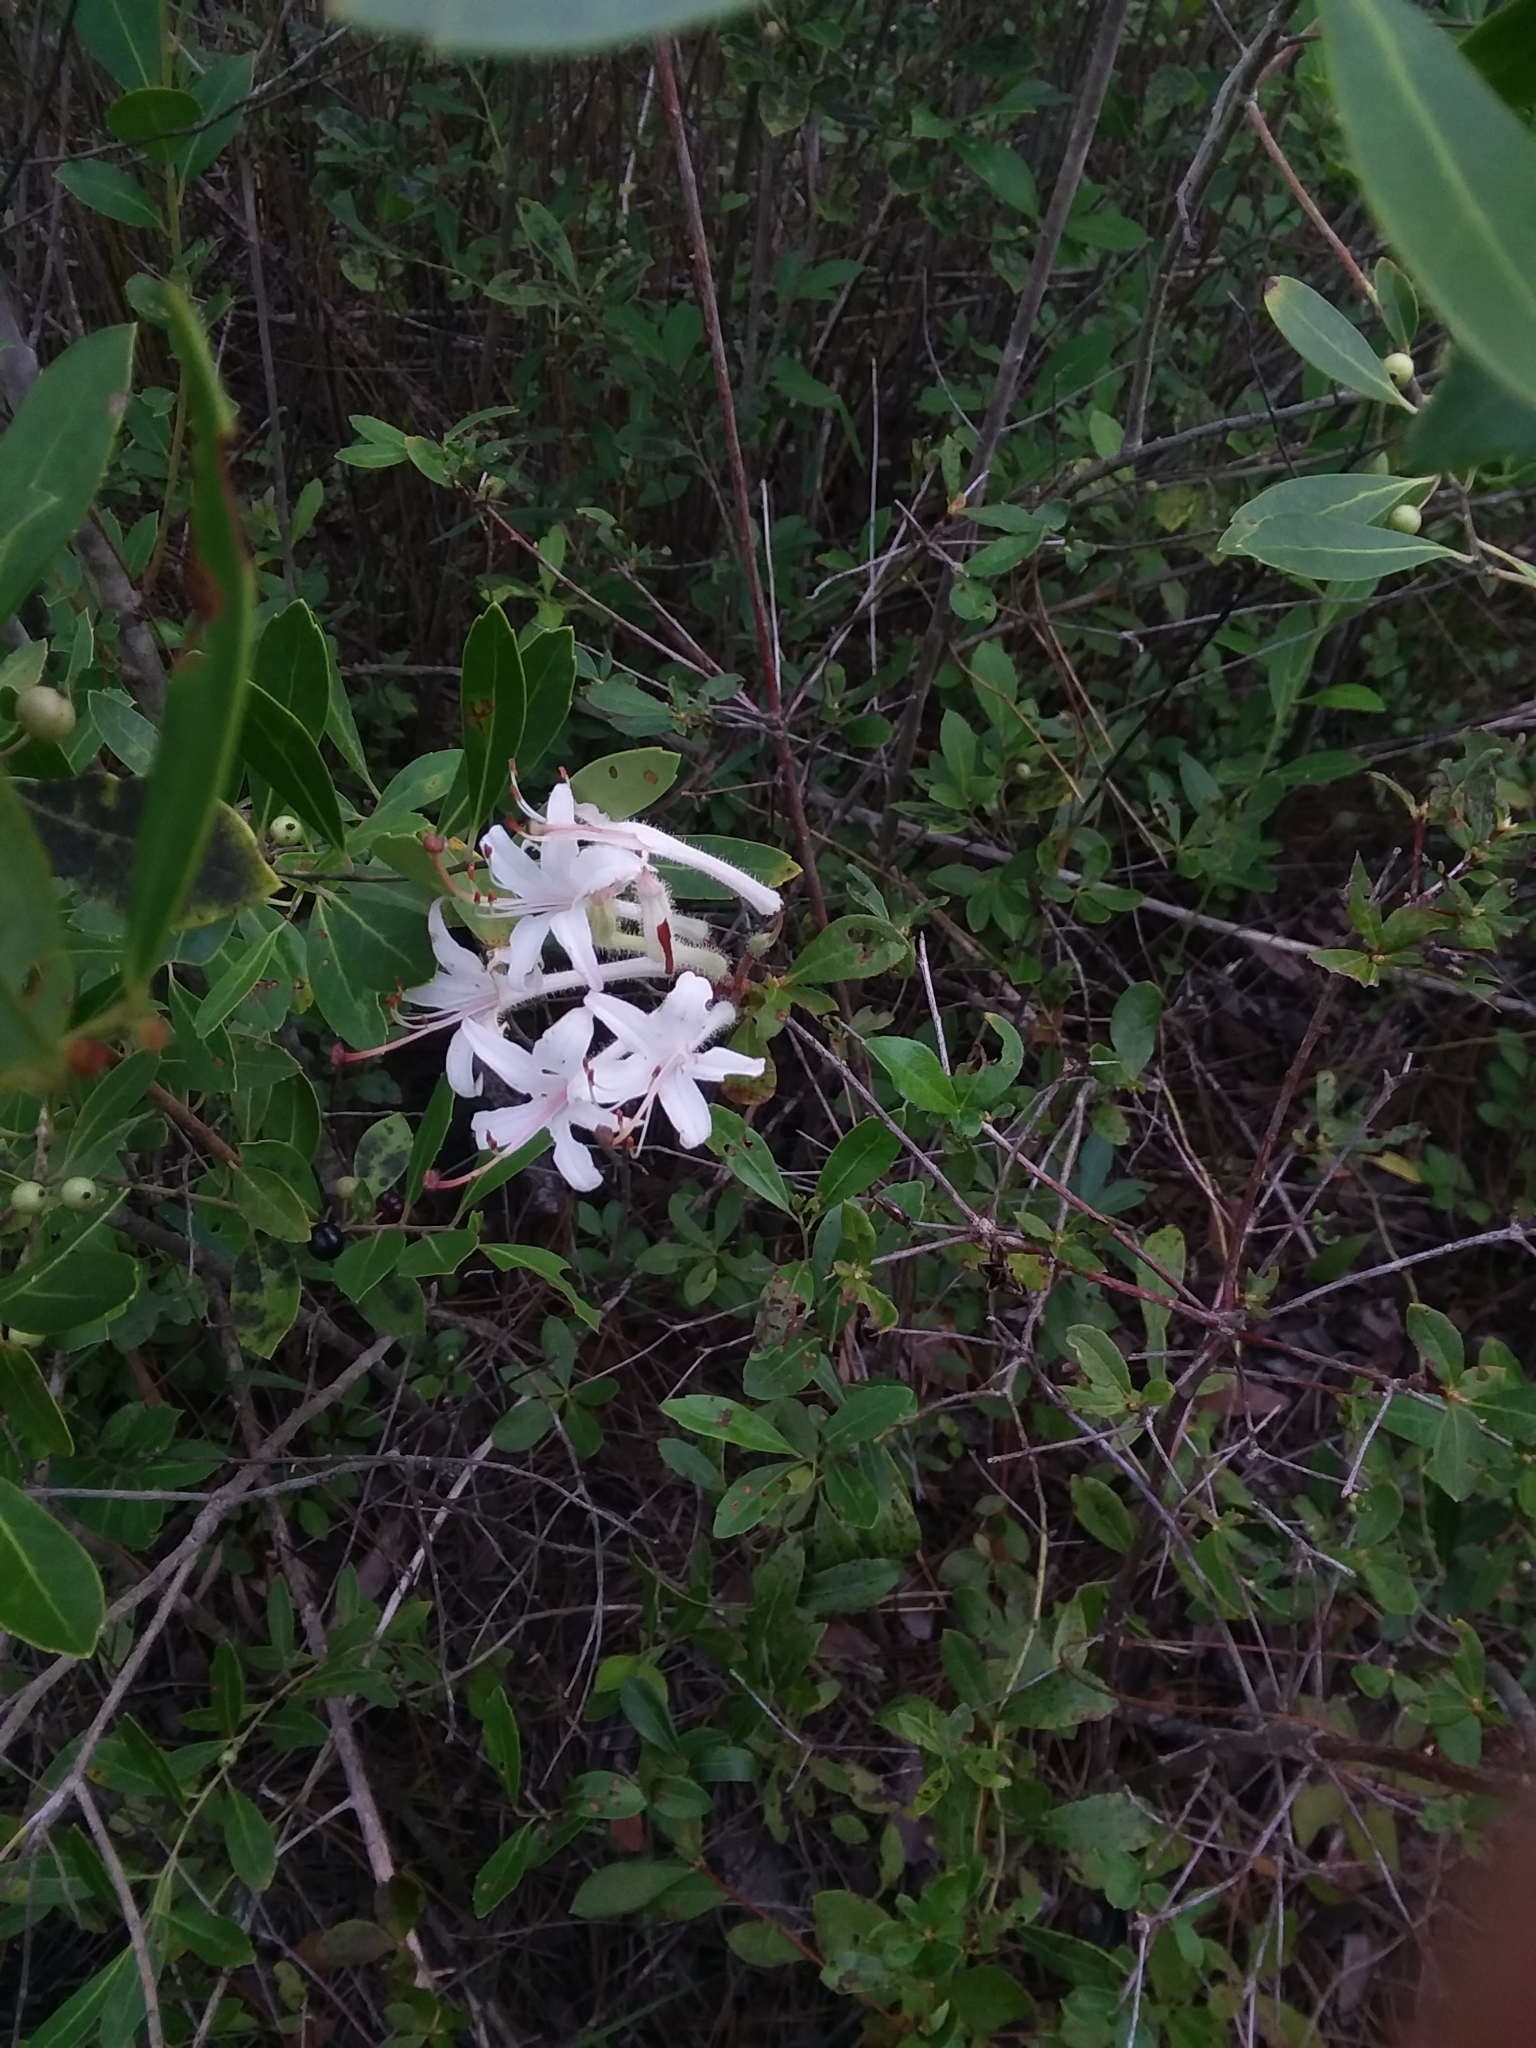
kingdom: Plantae
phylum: Tracheophyta
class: Magnoliopsida
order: Ericales
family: Ericaceae
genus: Rhododendron
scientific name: Rhododendron serrulatum
